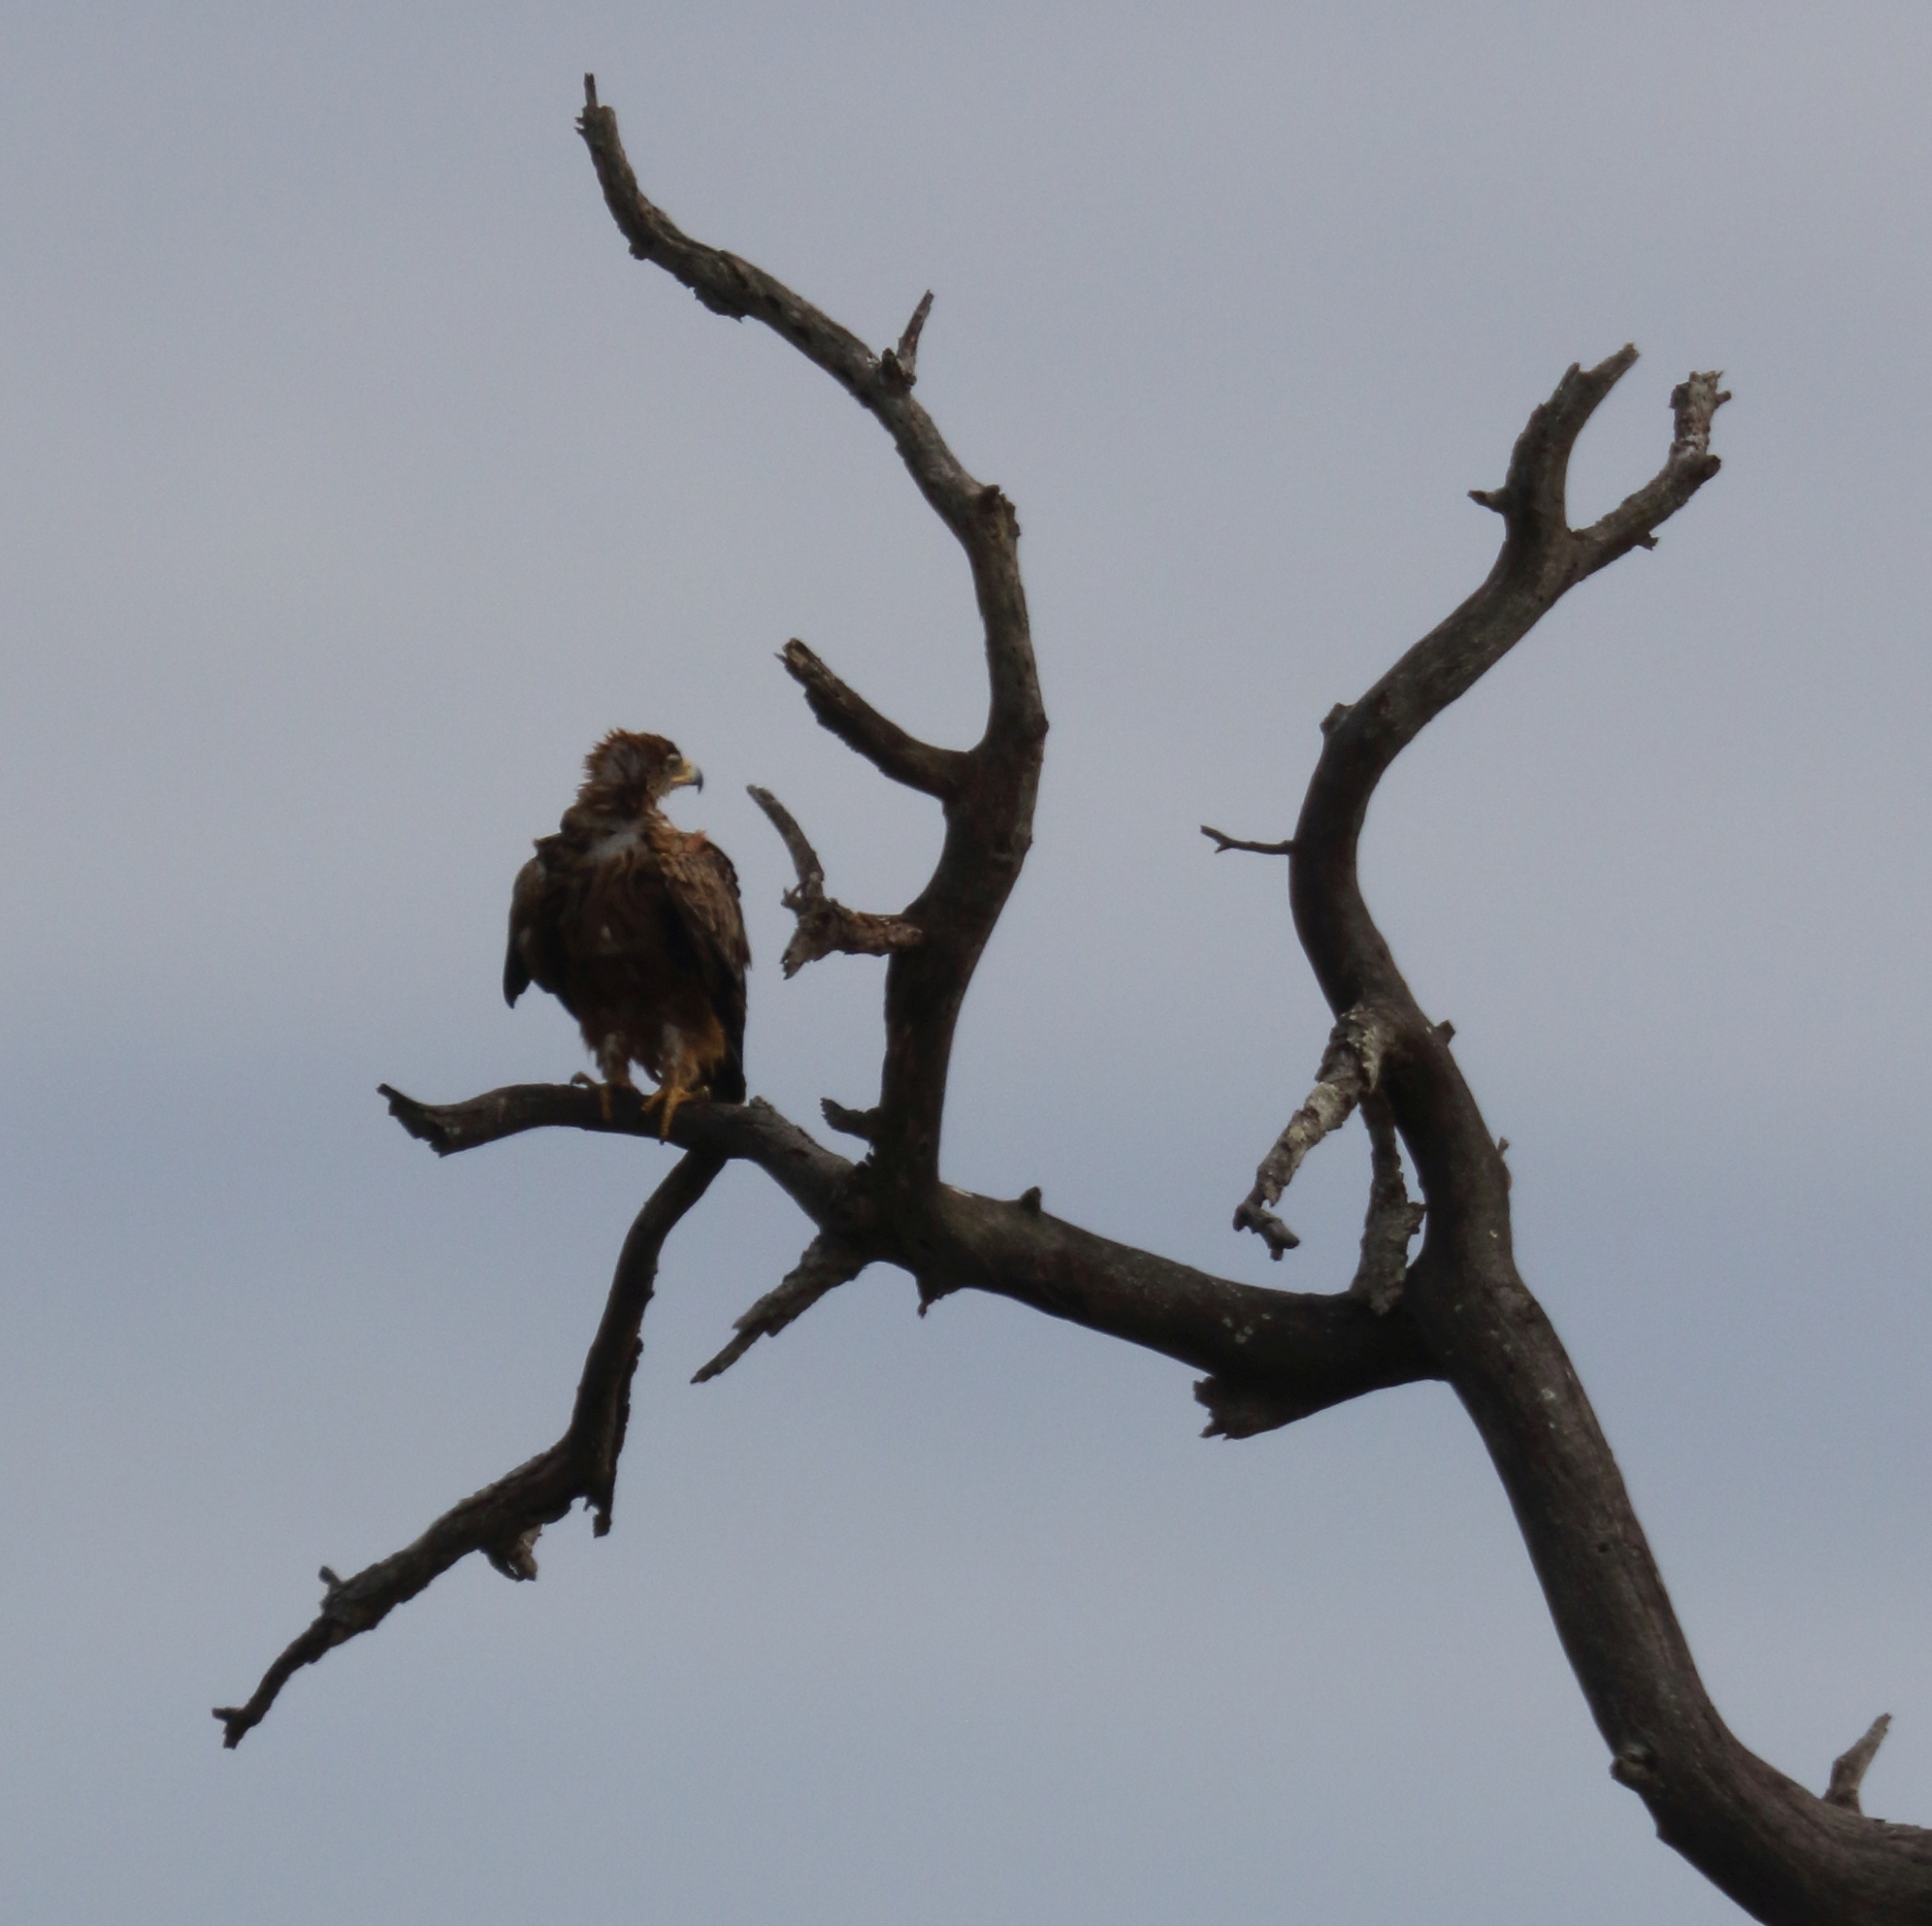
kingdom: Animalia
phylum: Chordata
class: Aves
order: Accipitriformes
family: Accipitridae
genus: Aquila
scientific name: Aquila rapax
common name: Tawny eagle
